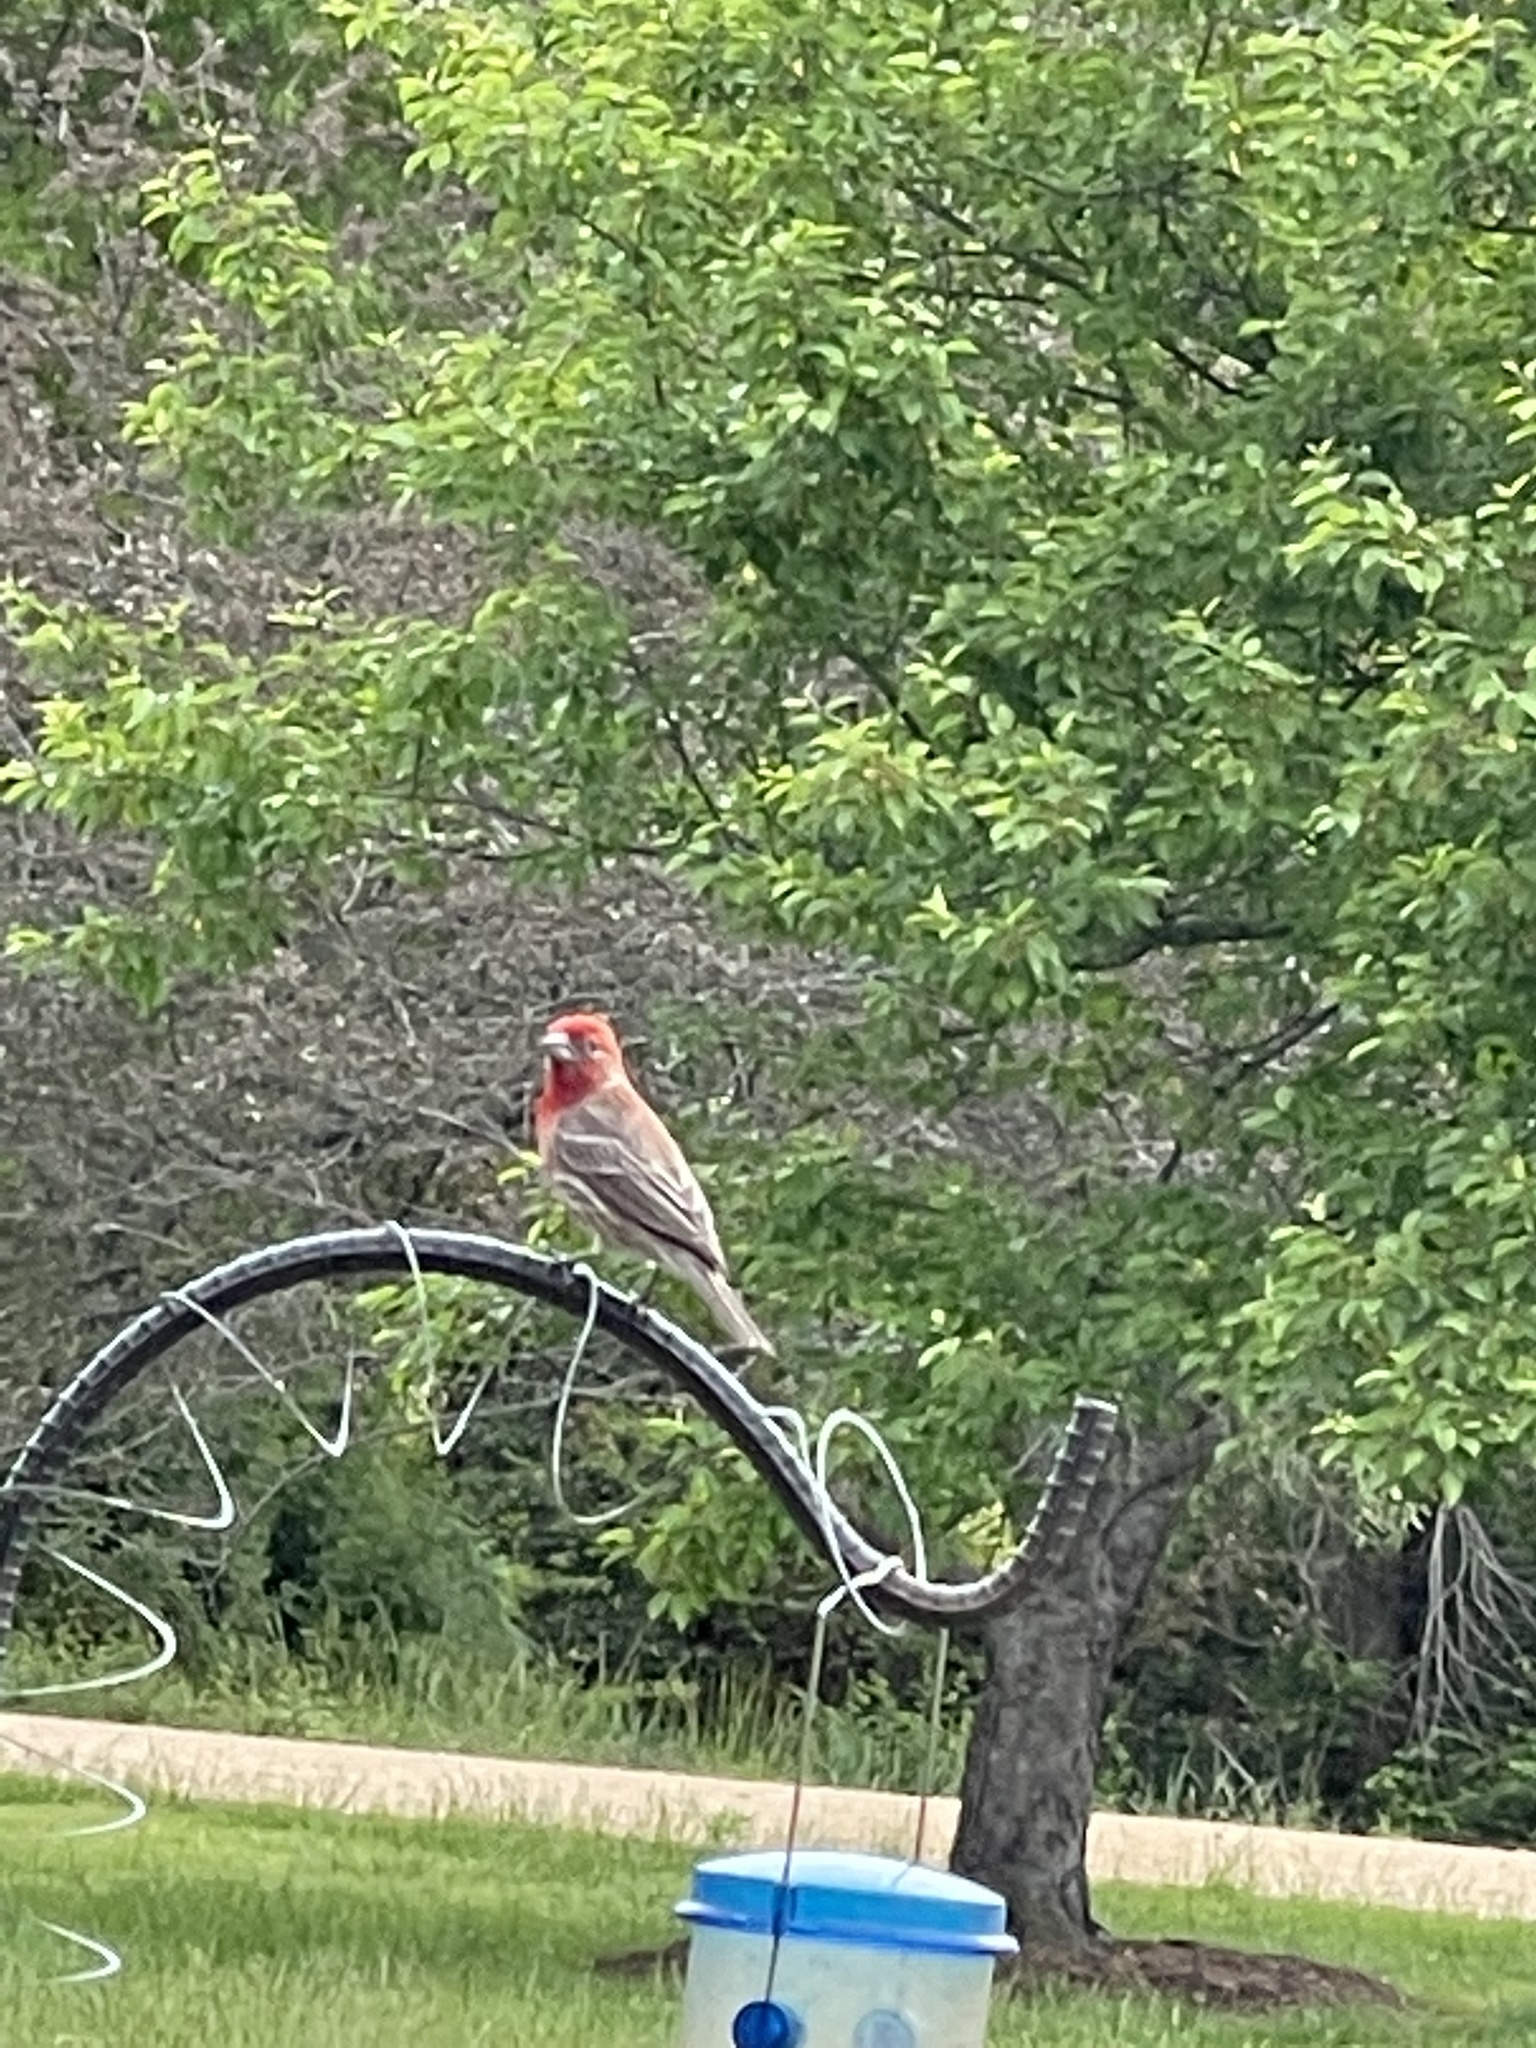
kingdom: Animalia
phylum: Chordata
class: Aves
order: Passeriformes
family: Fringillidae
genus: Haemorhous
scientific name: Haemorhous mexicanus
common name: House finch
